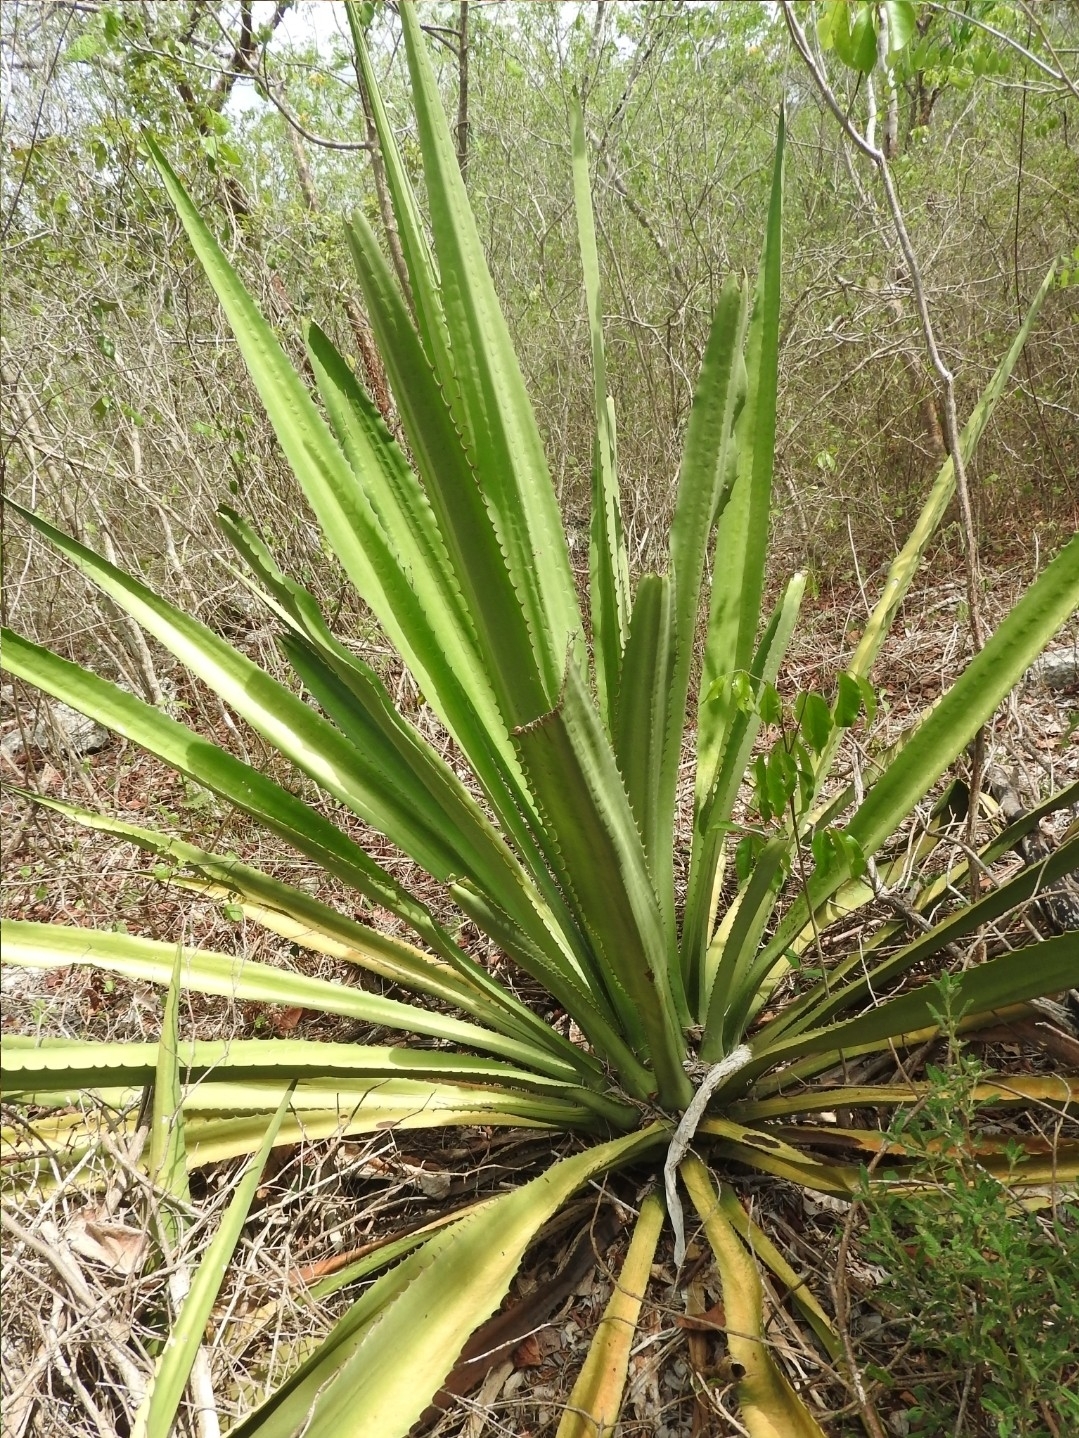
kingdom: Plantae
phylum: Tracheophyta
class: Liliopsida
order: Asparagales
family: Asparagaceae
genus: Agave
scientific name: Agave vivipara
